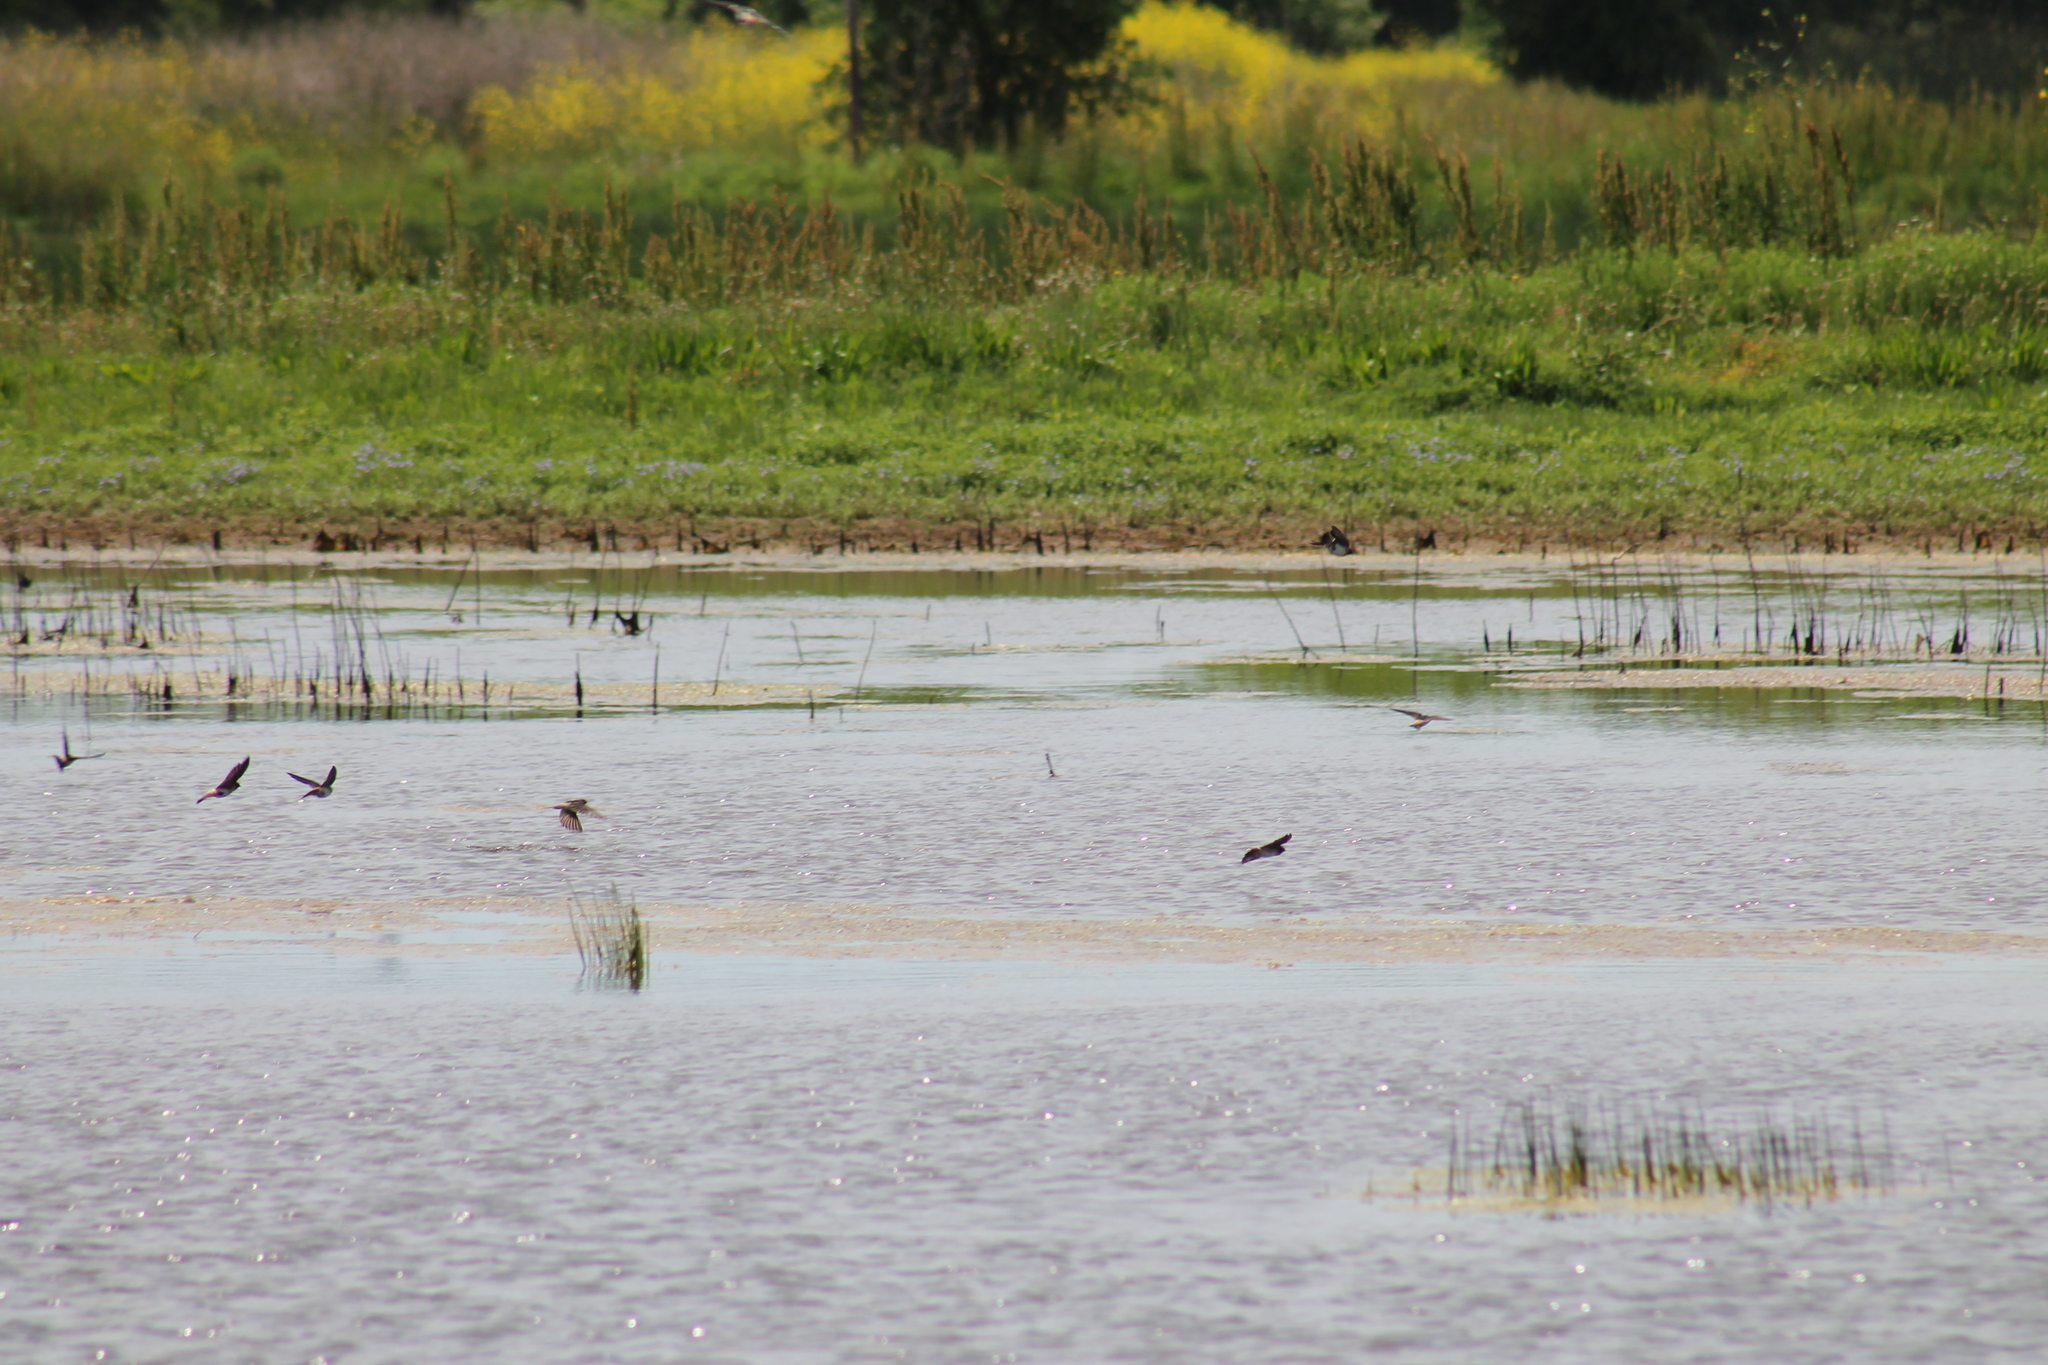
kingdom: Animalia
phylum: Chordata
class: Aves
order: Passeriformes
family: Hirundinidae
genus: Petrochelidon
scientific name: Petrochelidon pyrrhonota
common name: American cliff swallow
